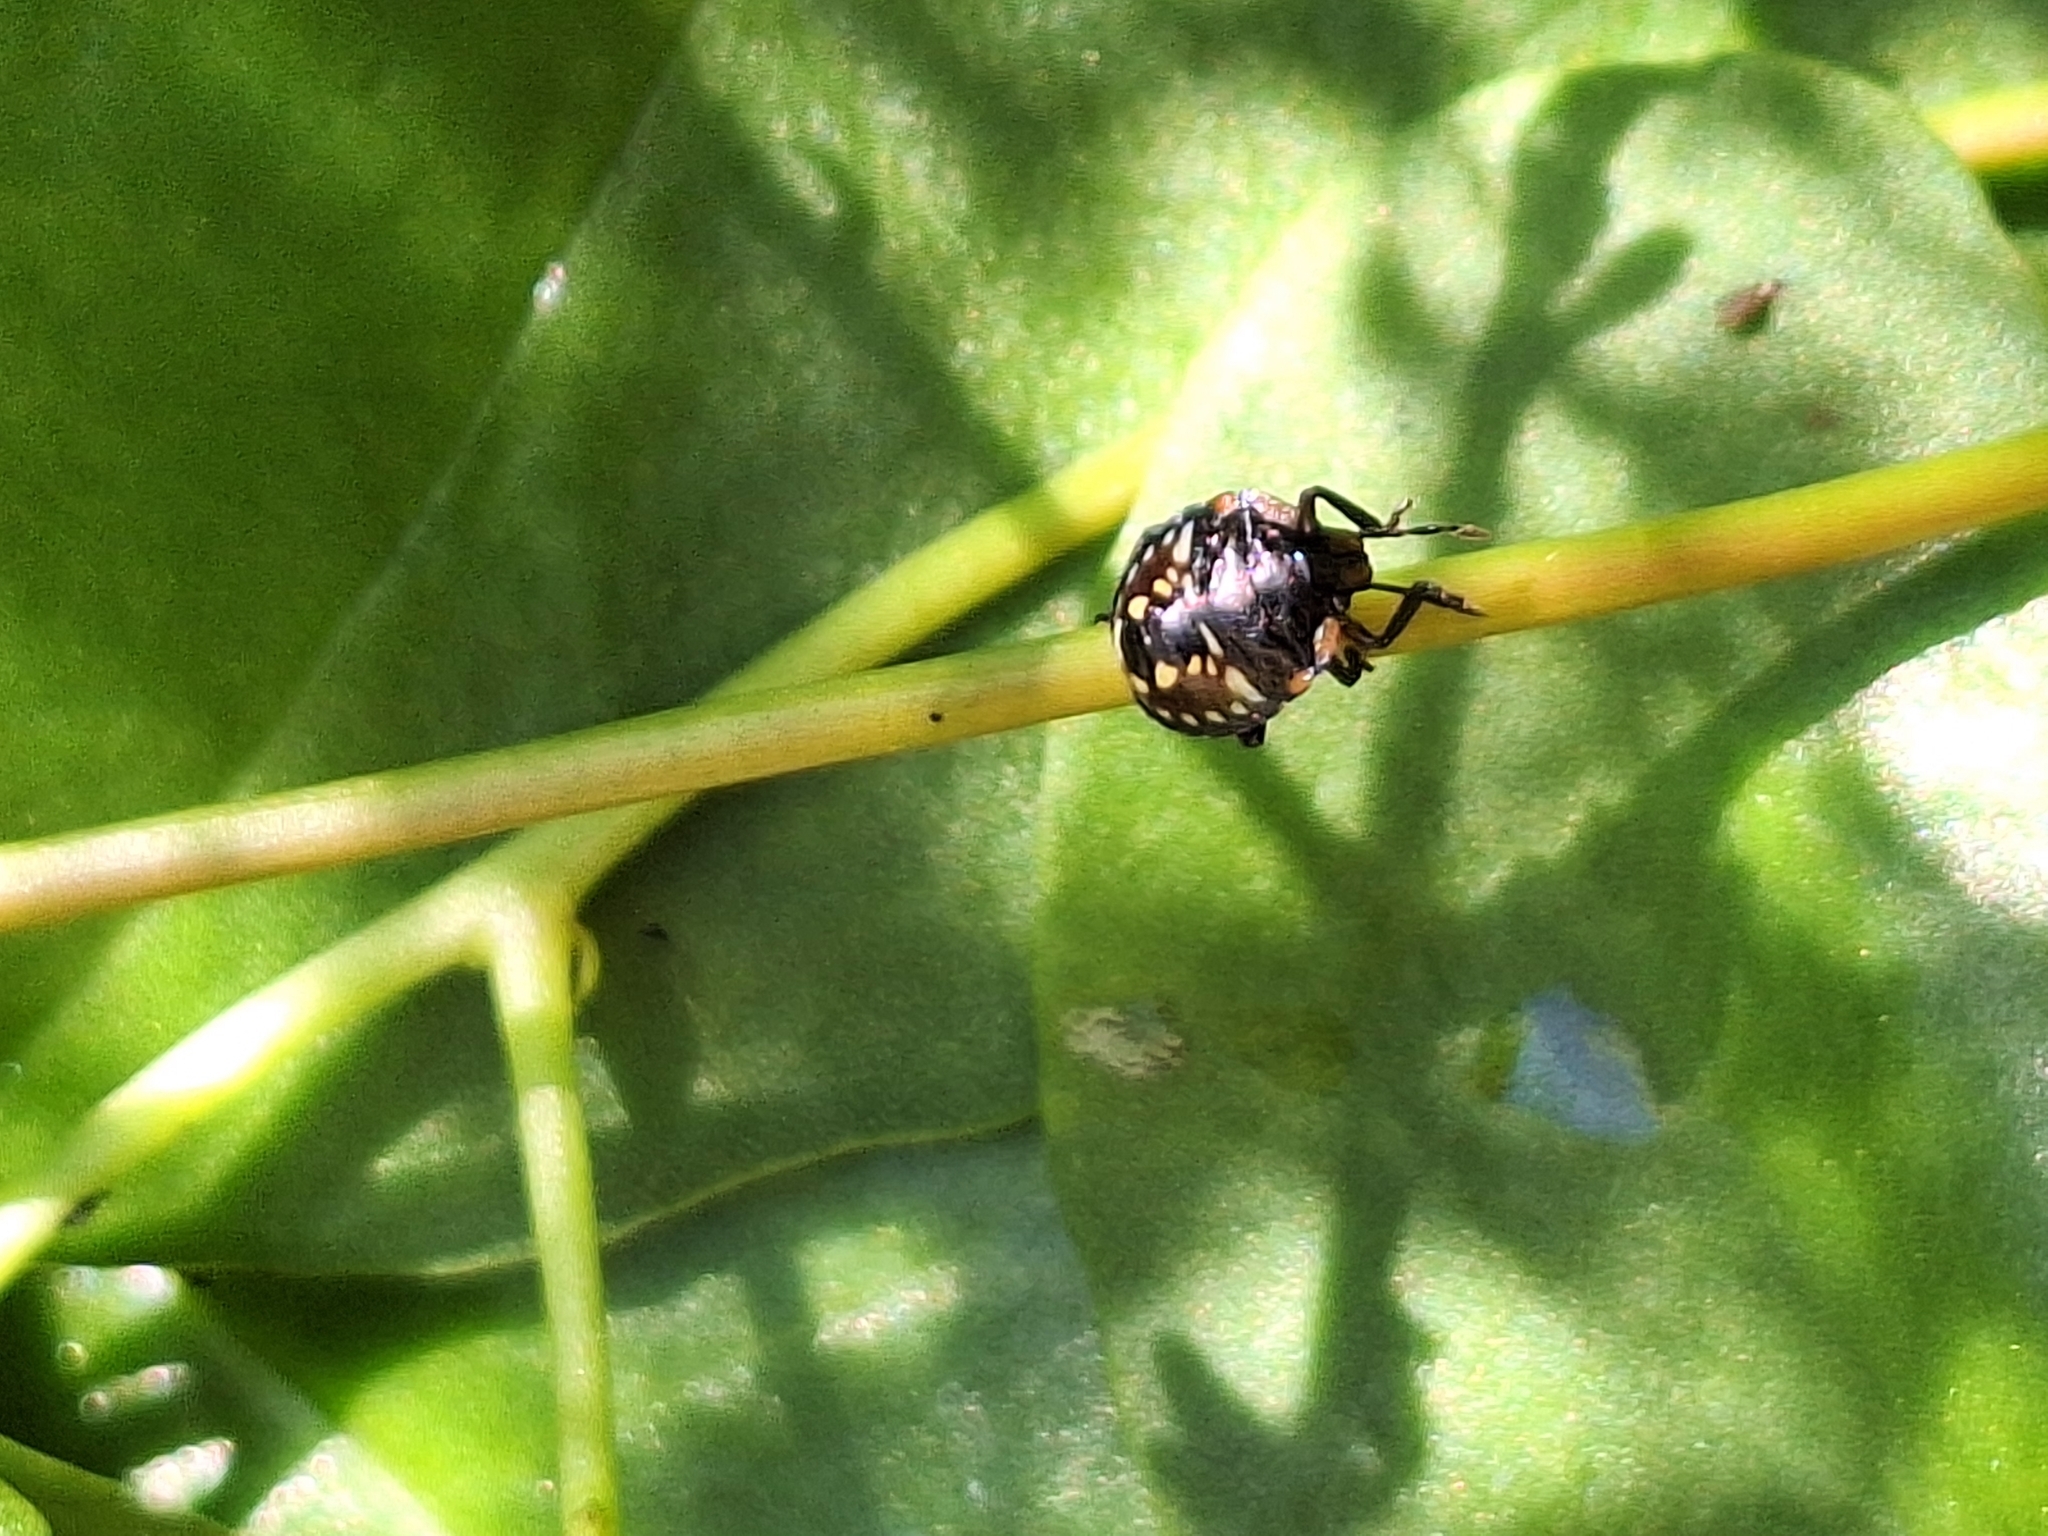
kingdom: Animalia
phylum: Arthropoda
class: Insecta
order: Hemiptera
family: Pentatomidae
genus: Nezara
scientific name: Nezara viridula
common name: Southern green stink bug
